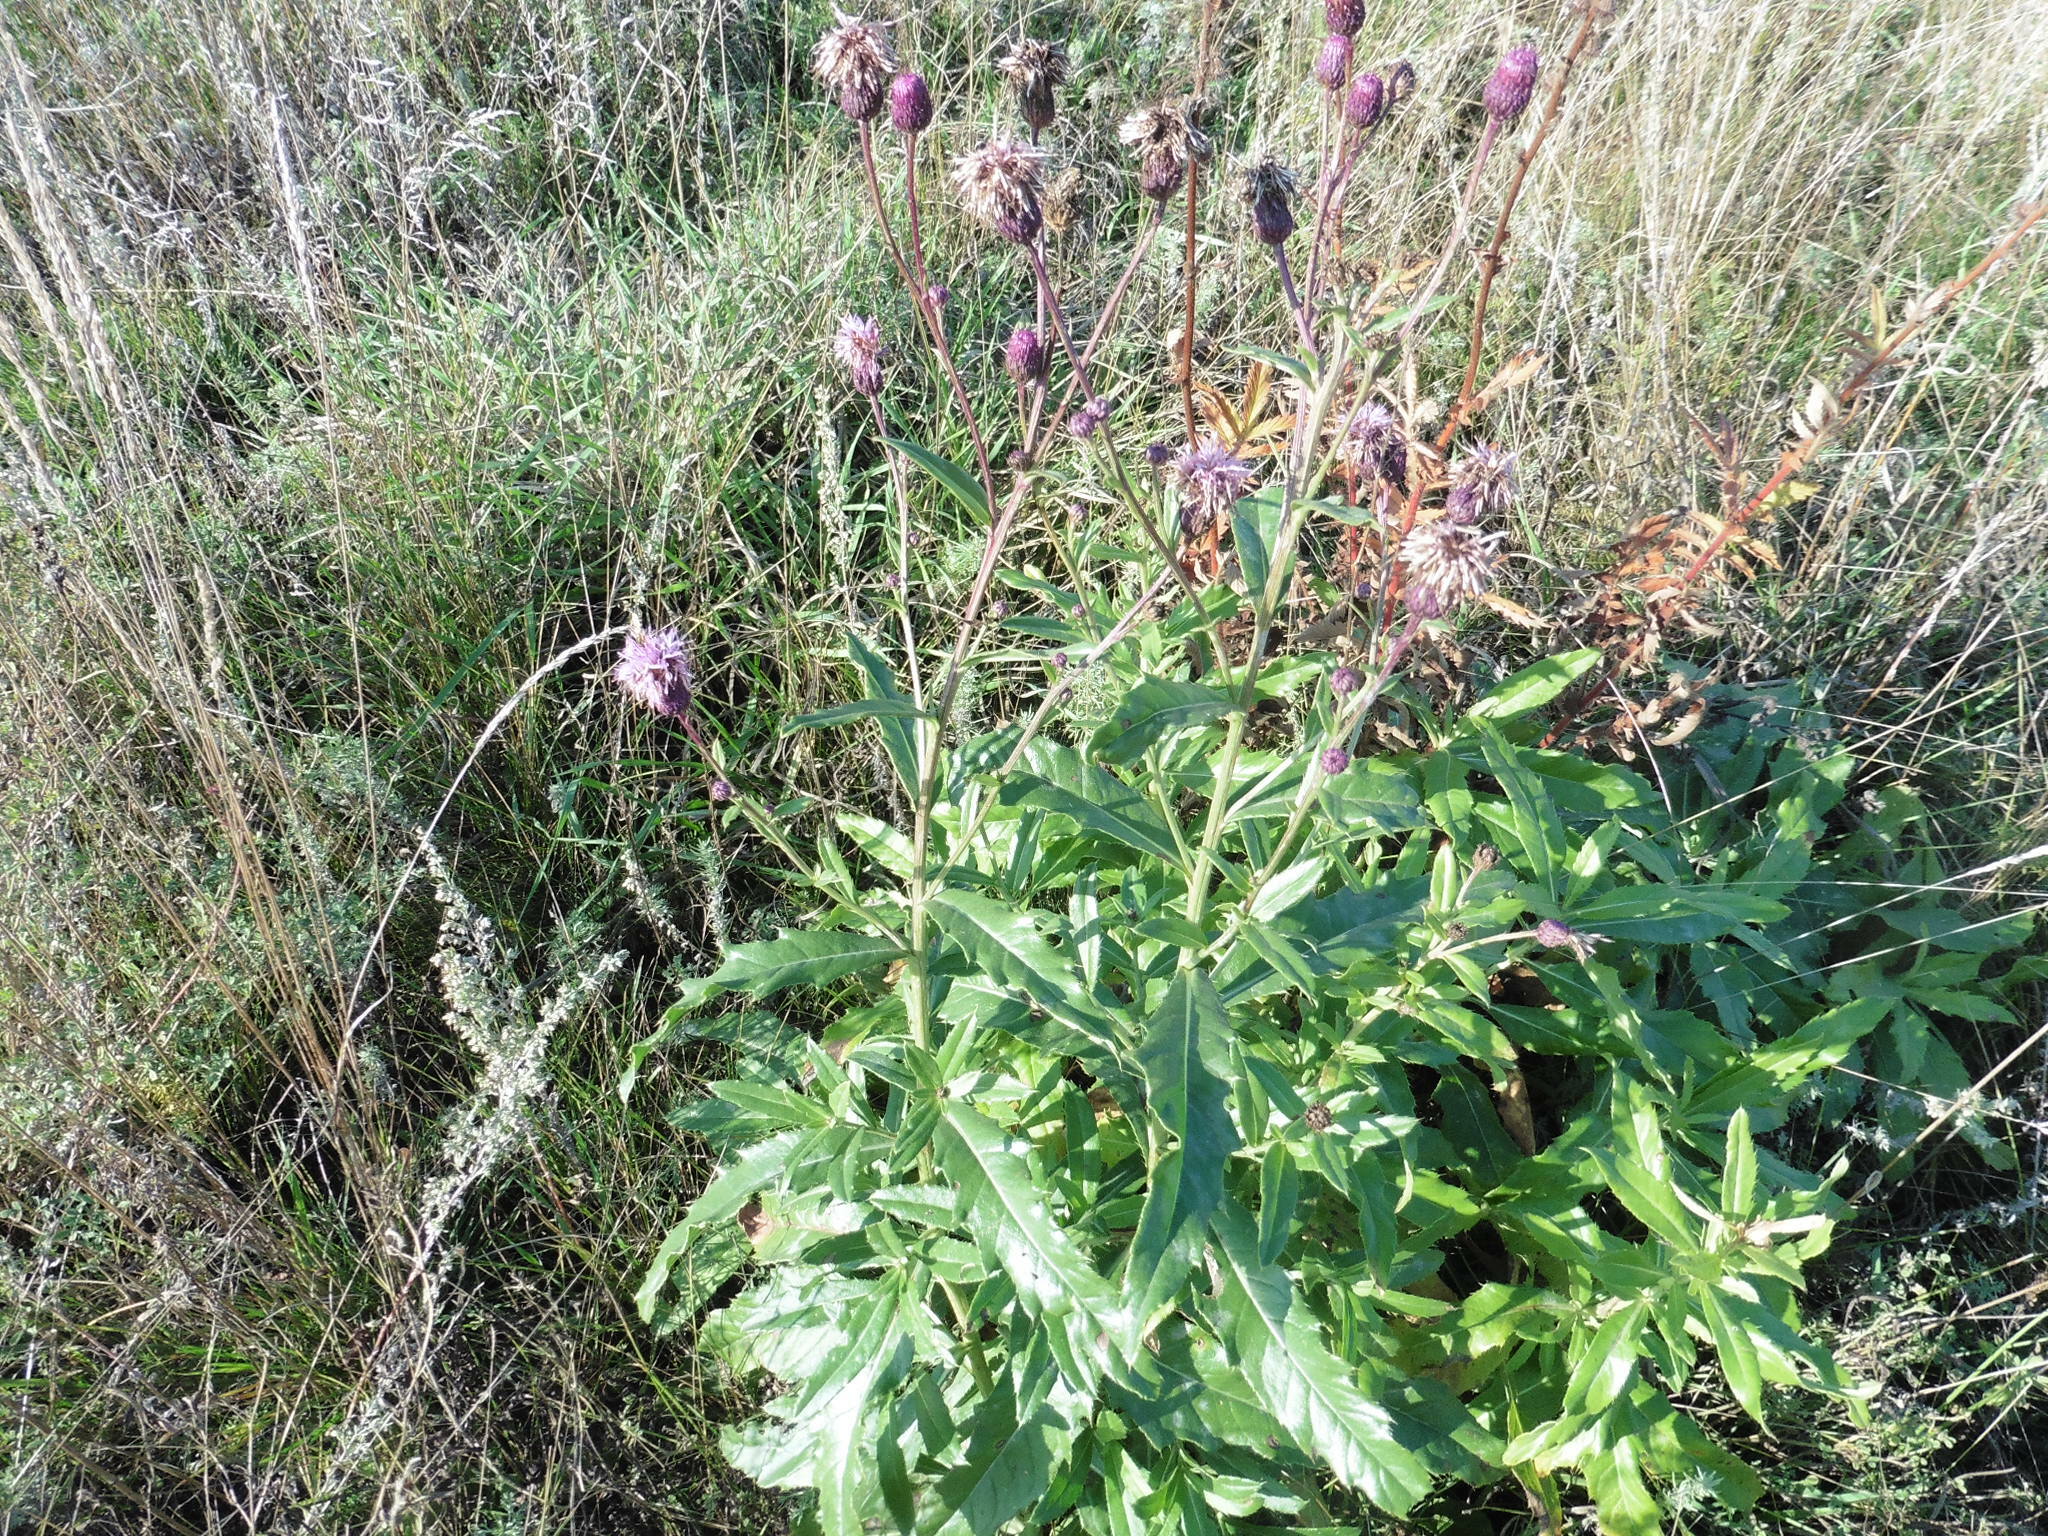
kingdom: Plantae
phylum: Tracheophyta
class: Magnoliopsida
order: Asterales
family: Asteraceae
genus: Cirsium
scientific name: Cirsium arvense
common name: Creeping thistle
